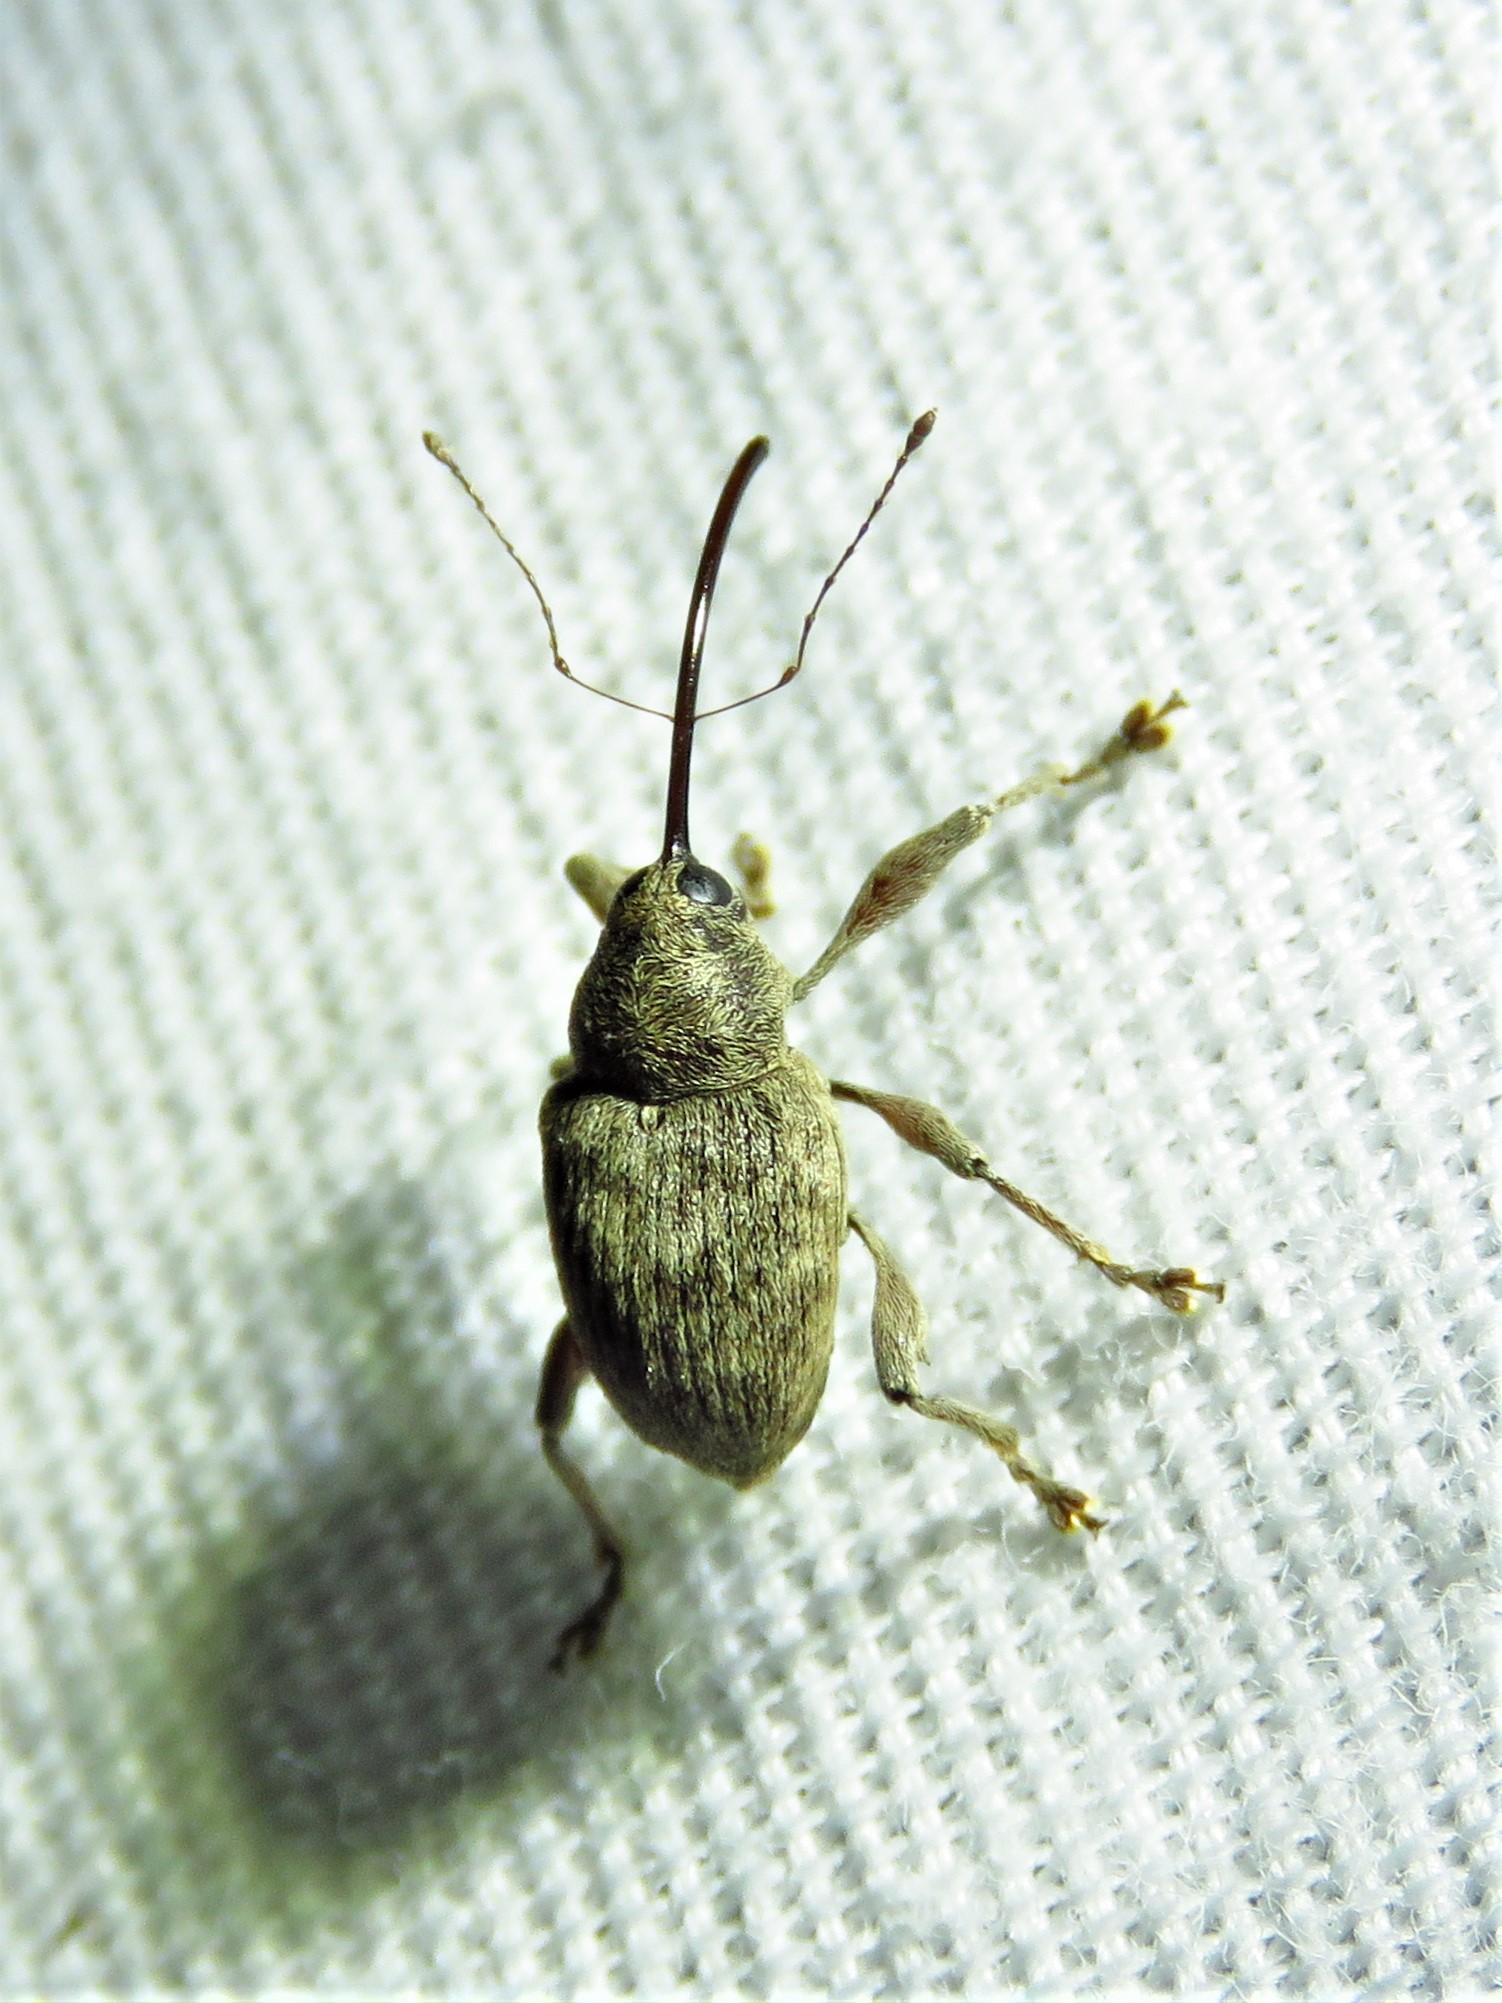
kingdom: Animalia
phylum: Arthropoda
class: Insecta
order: Coleoptera
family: Curculionidae
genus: Curculio
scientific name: Curculio
